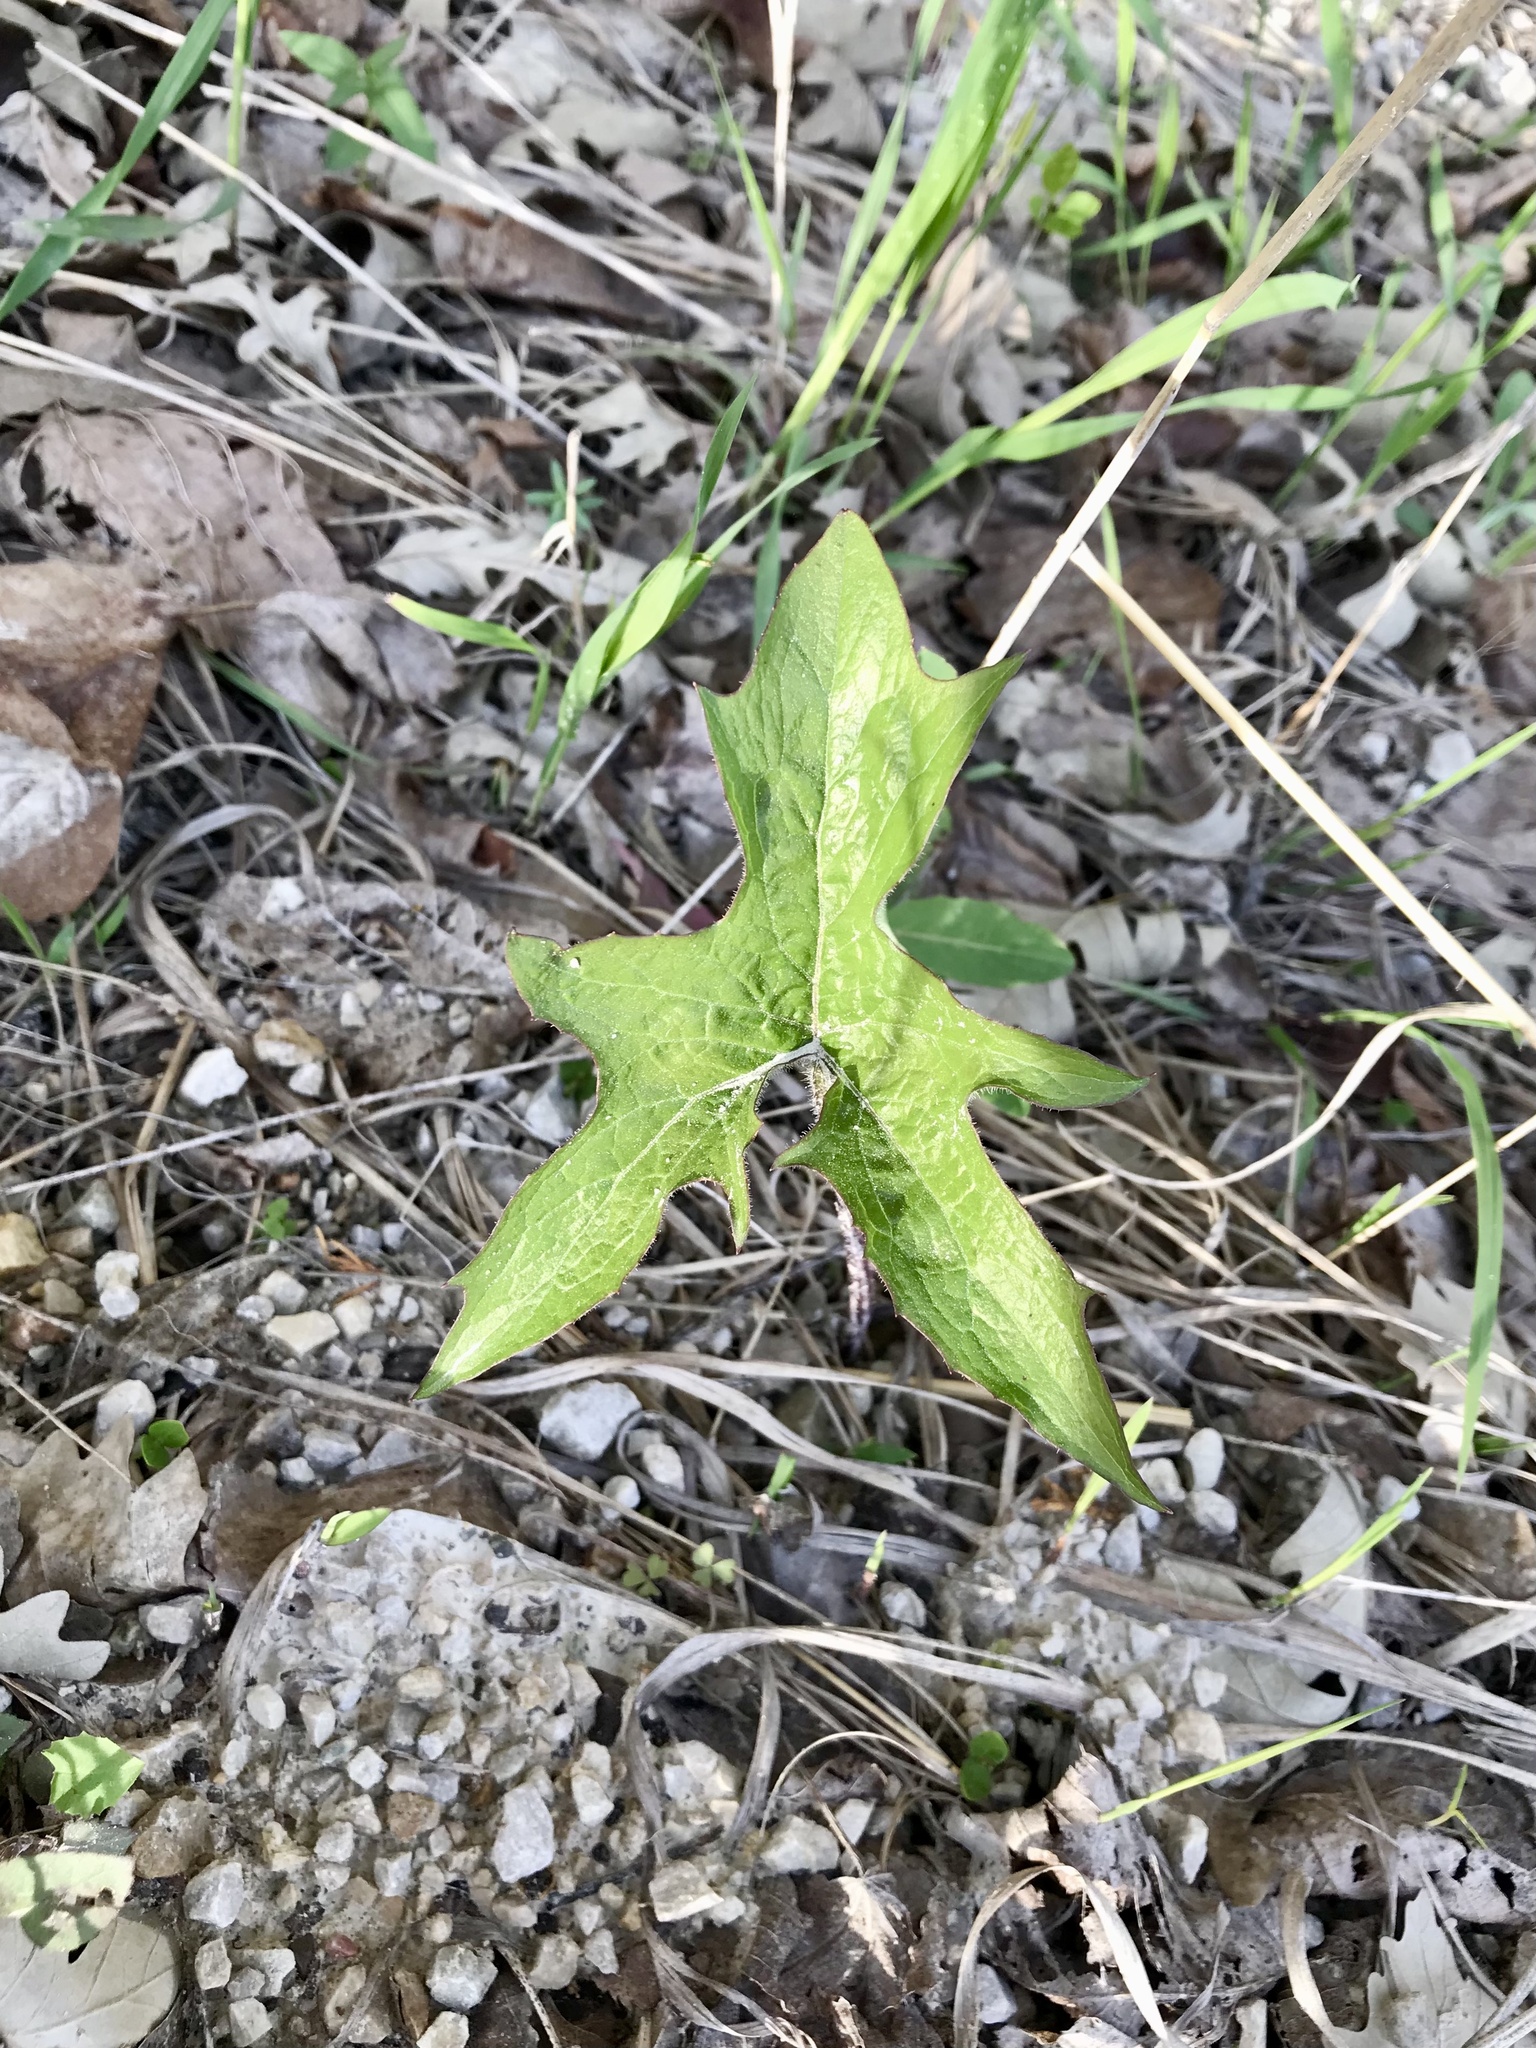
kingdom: Plantae
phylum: Tracheophyta
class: Magnoliopsida
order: Asterales
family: Asteraceae
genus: Nabalus
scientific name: Nabalus albus
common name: White rattlesnakeroot
